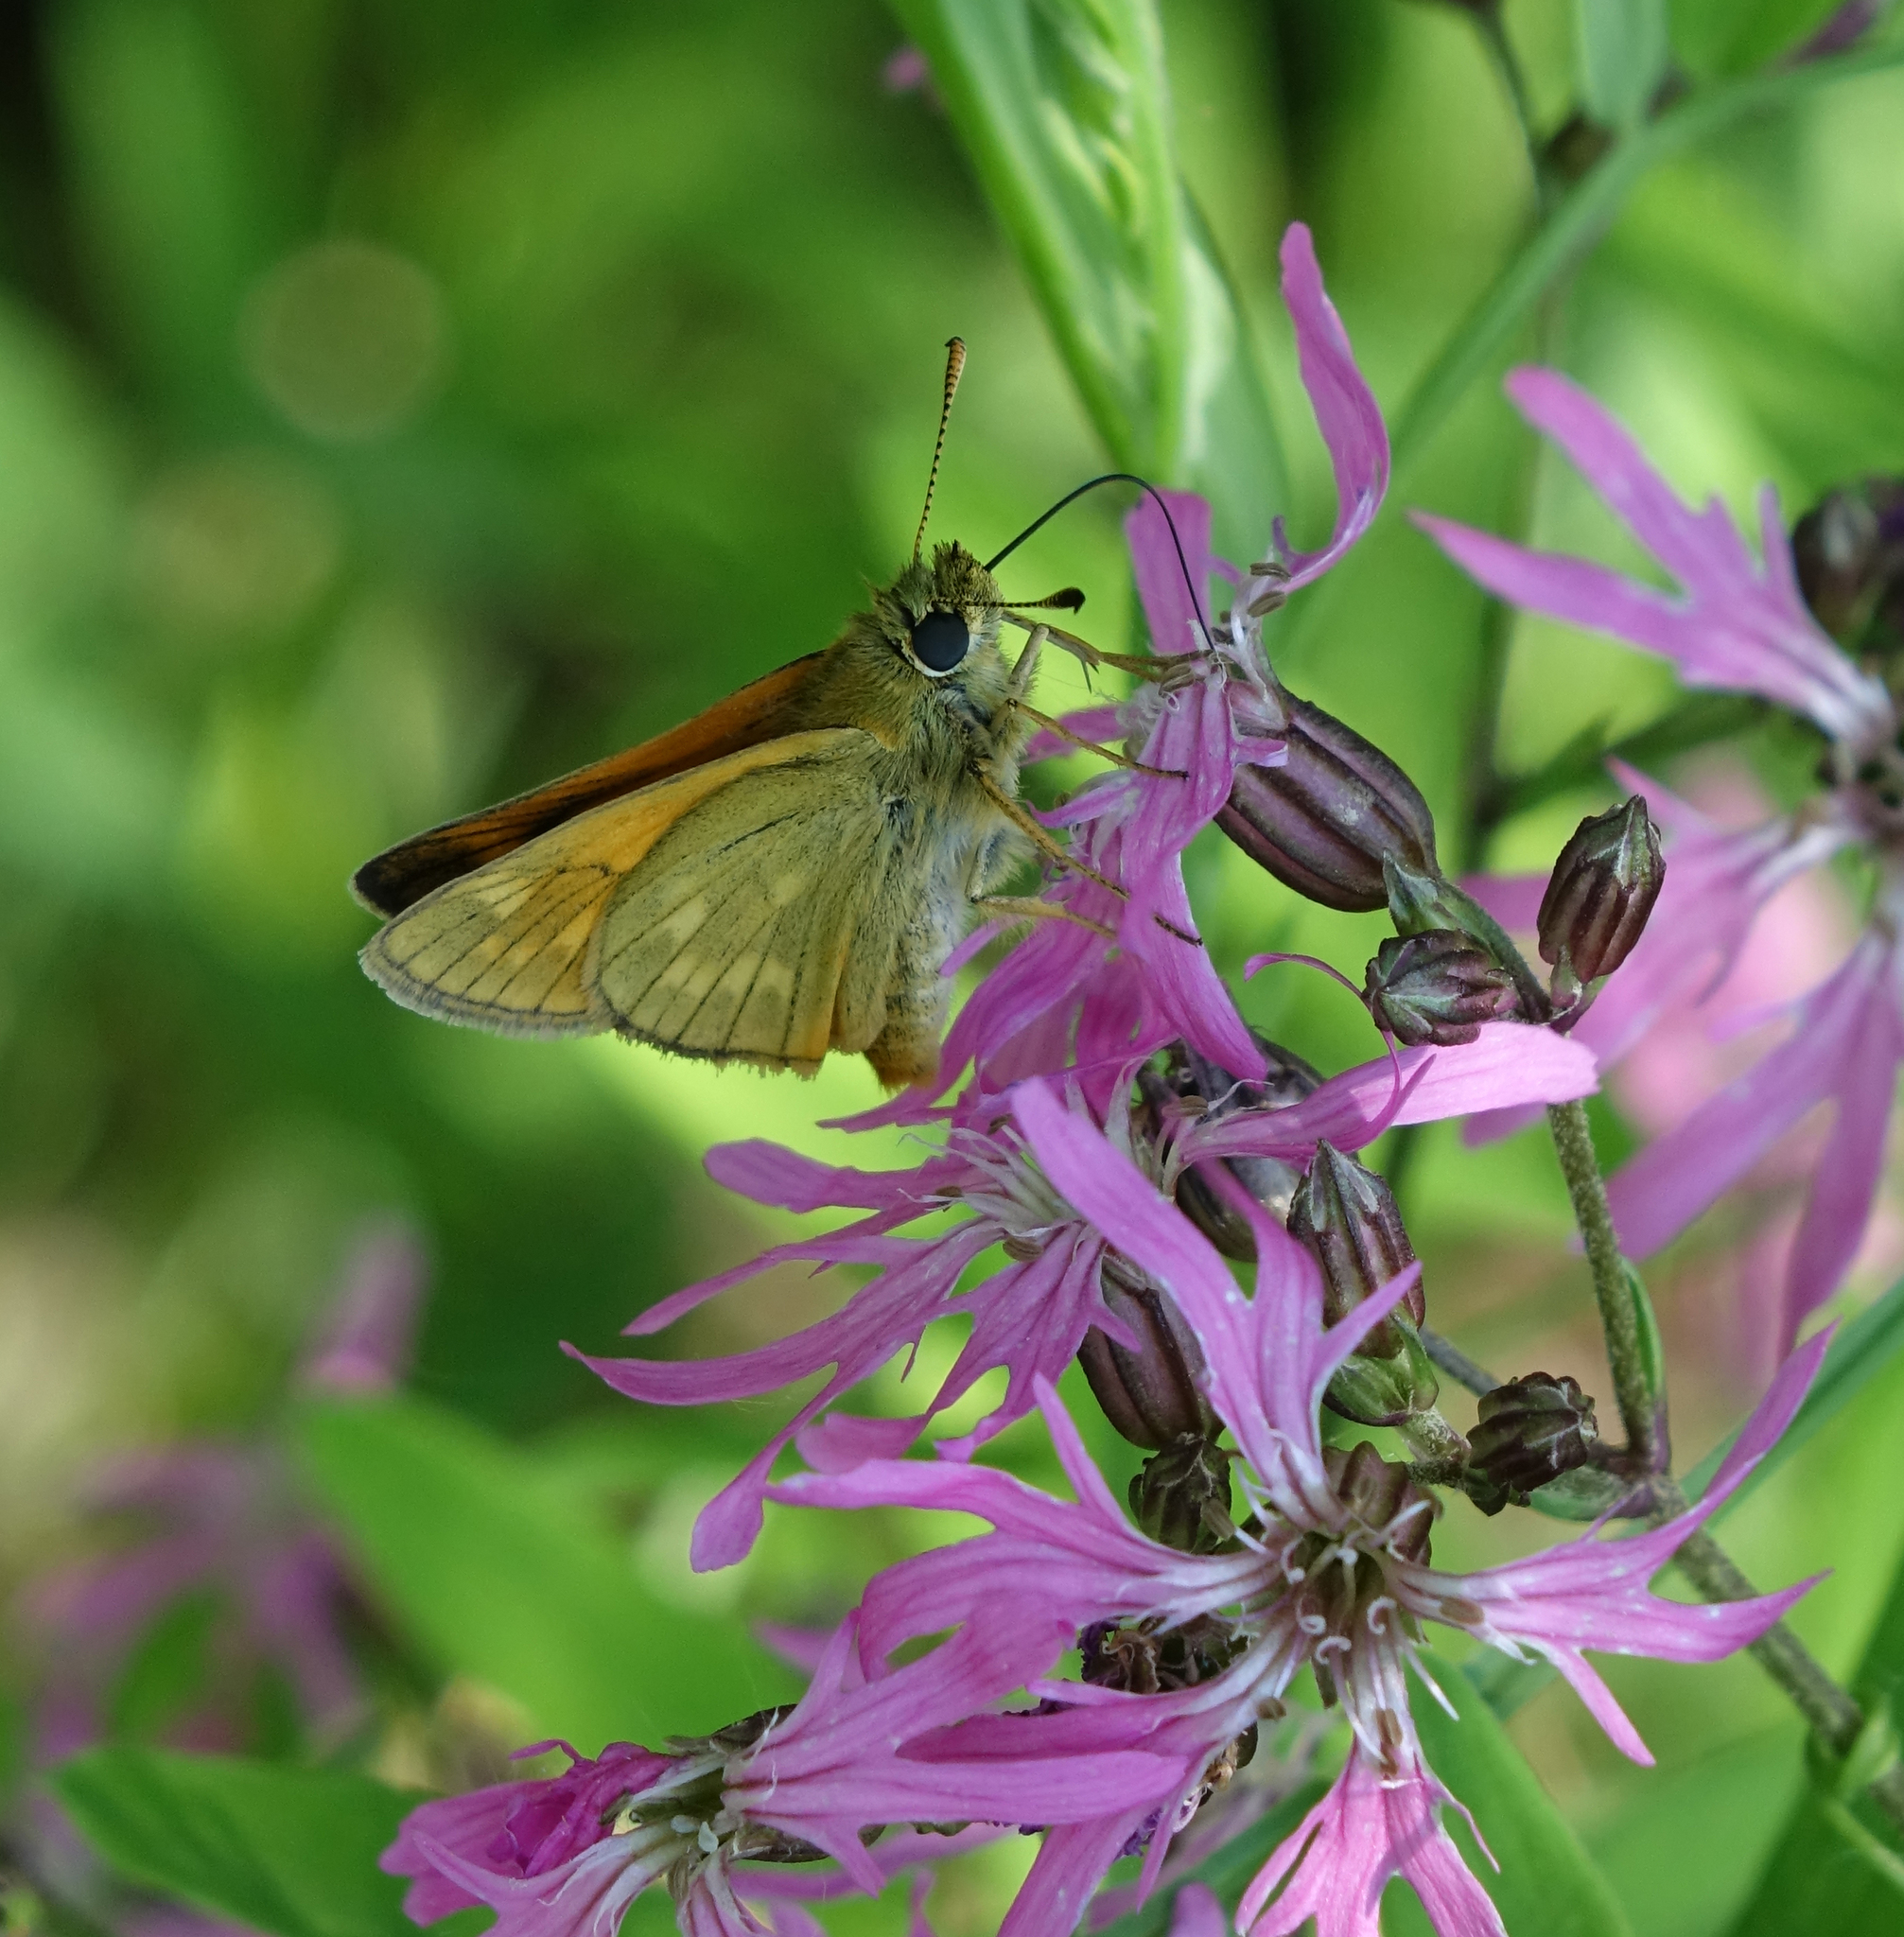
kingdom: Animalia
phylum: Arthropoda
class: Insecta
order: Lepidoptera
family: Hesperiidae
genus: Ochlodes
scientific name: Ochlodes venata
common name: Large skipper
